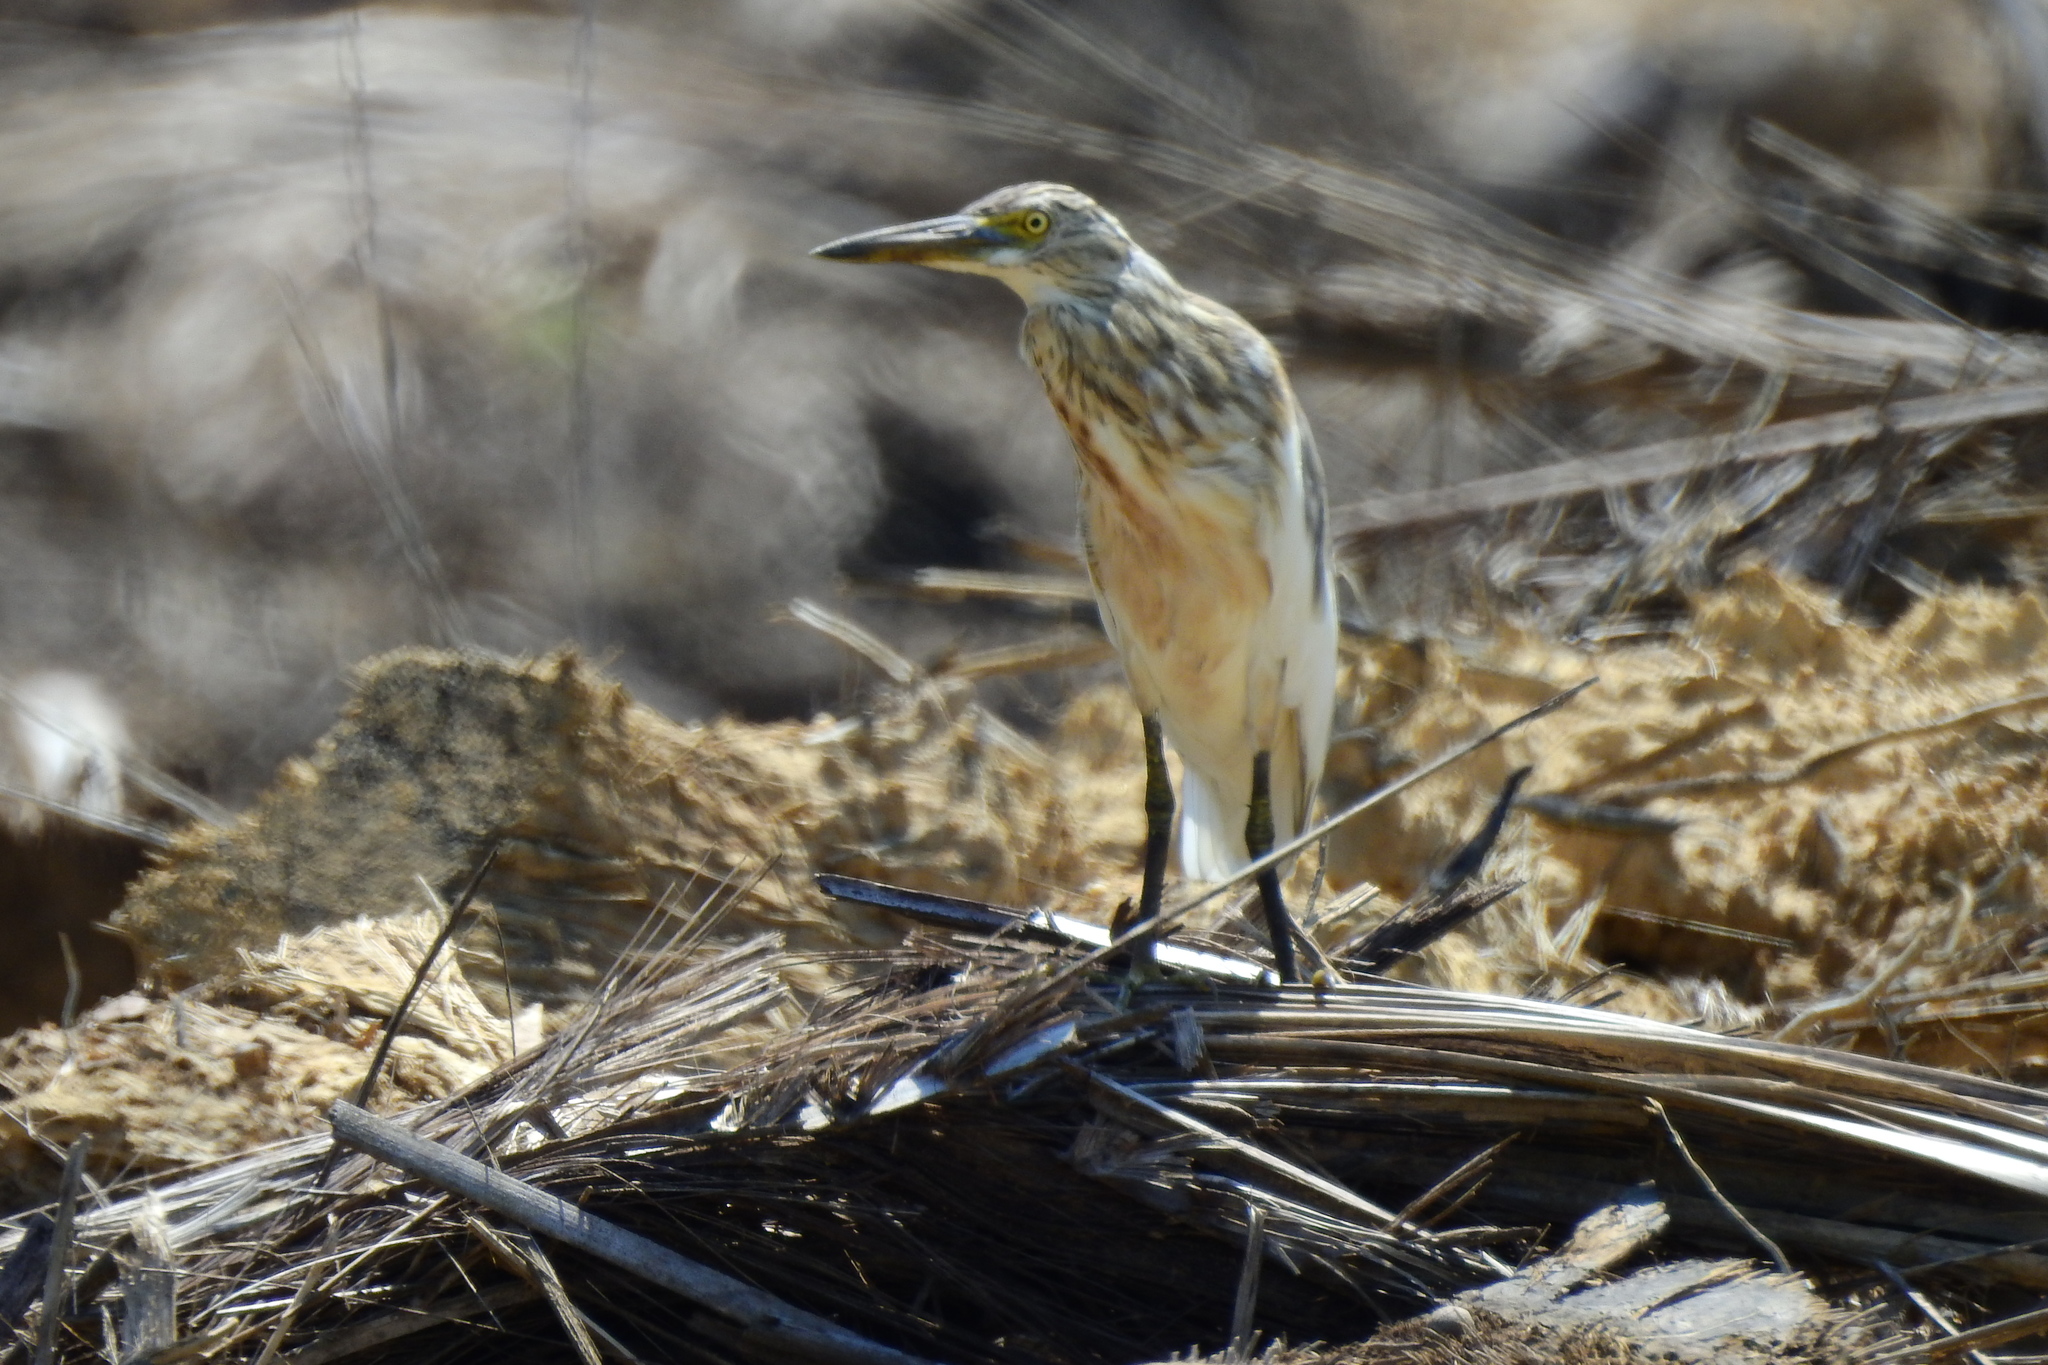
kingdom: Animalia
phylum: Chordata
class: Aves
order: Pelecaniformes
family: Ardeidae
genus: Ardeola
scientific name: Ardeola speciosa
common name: Javan pond heron
